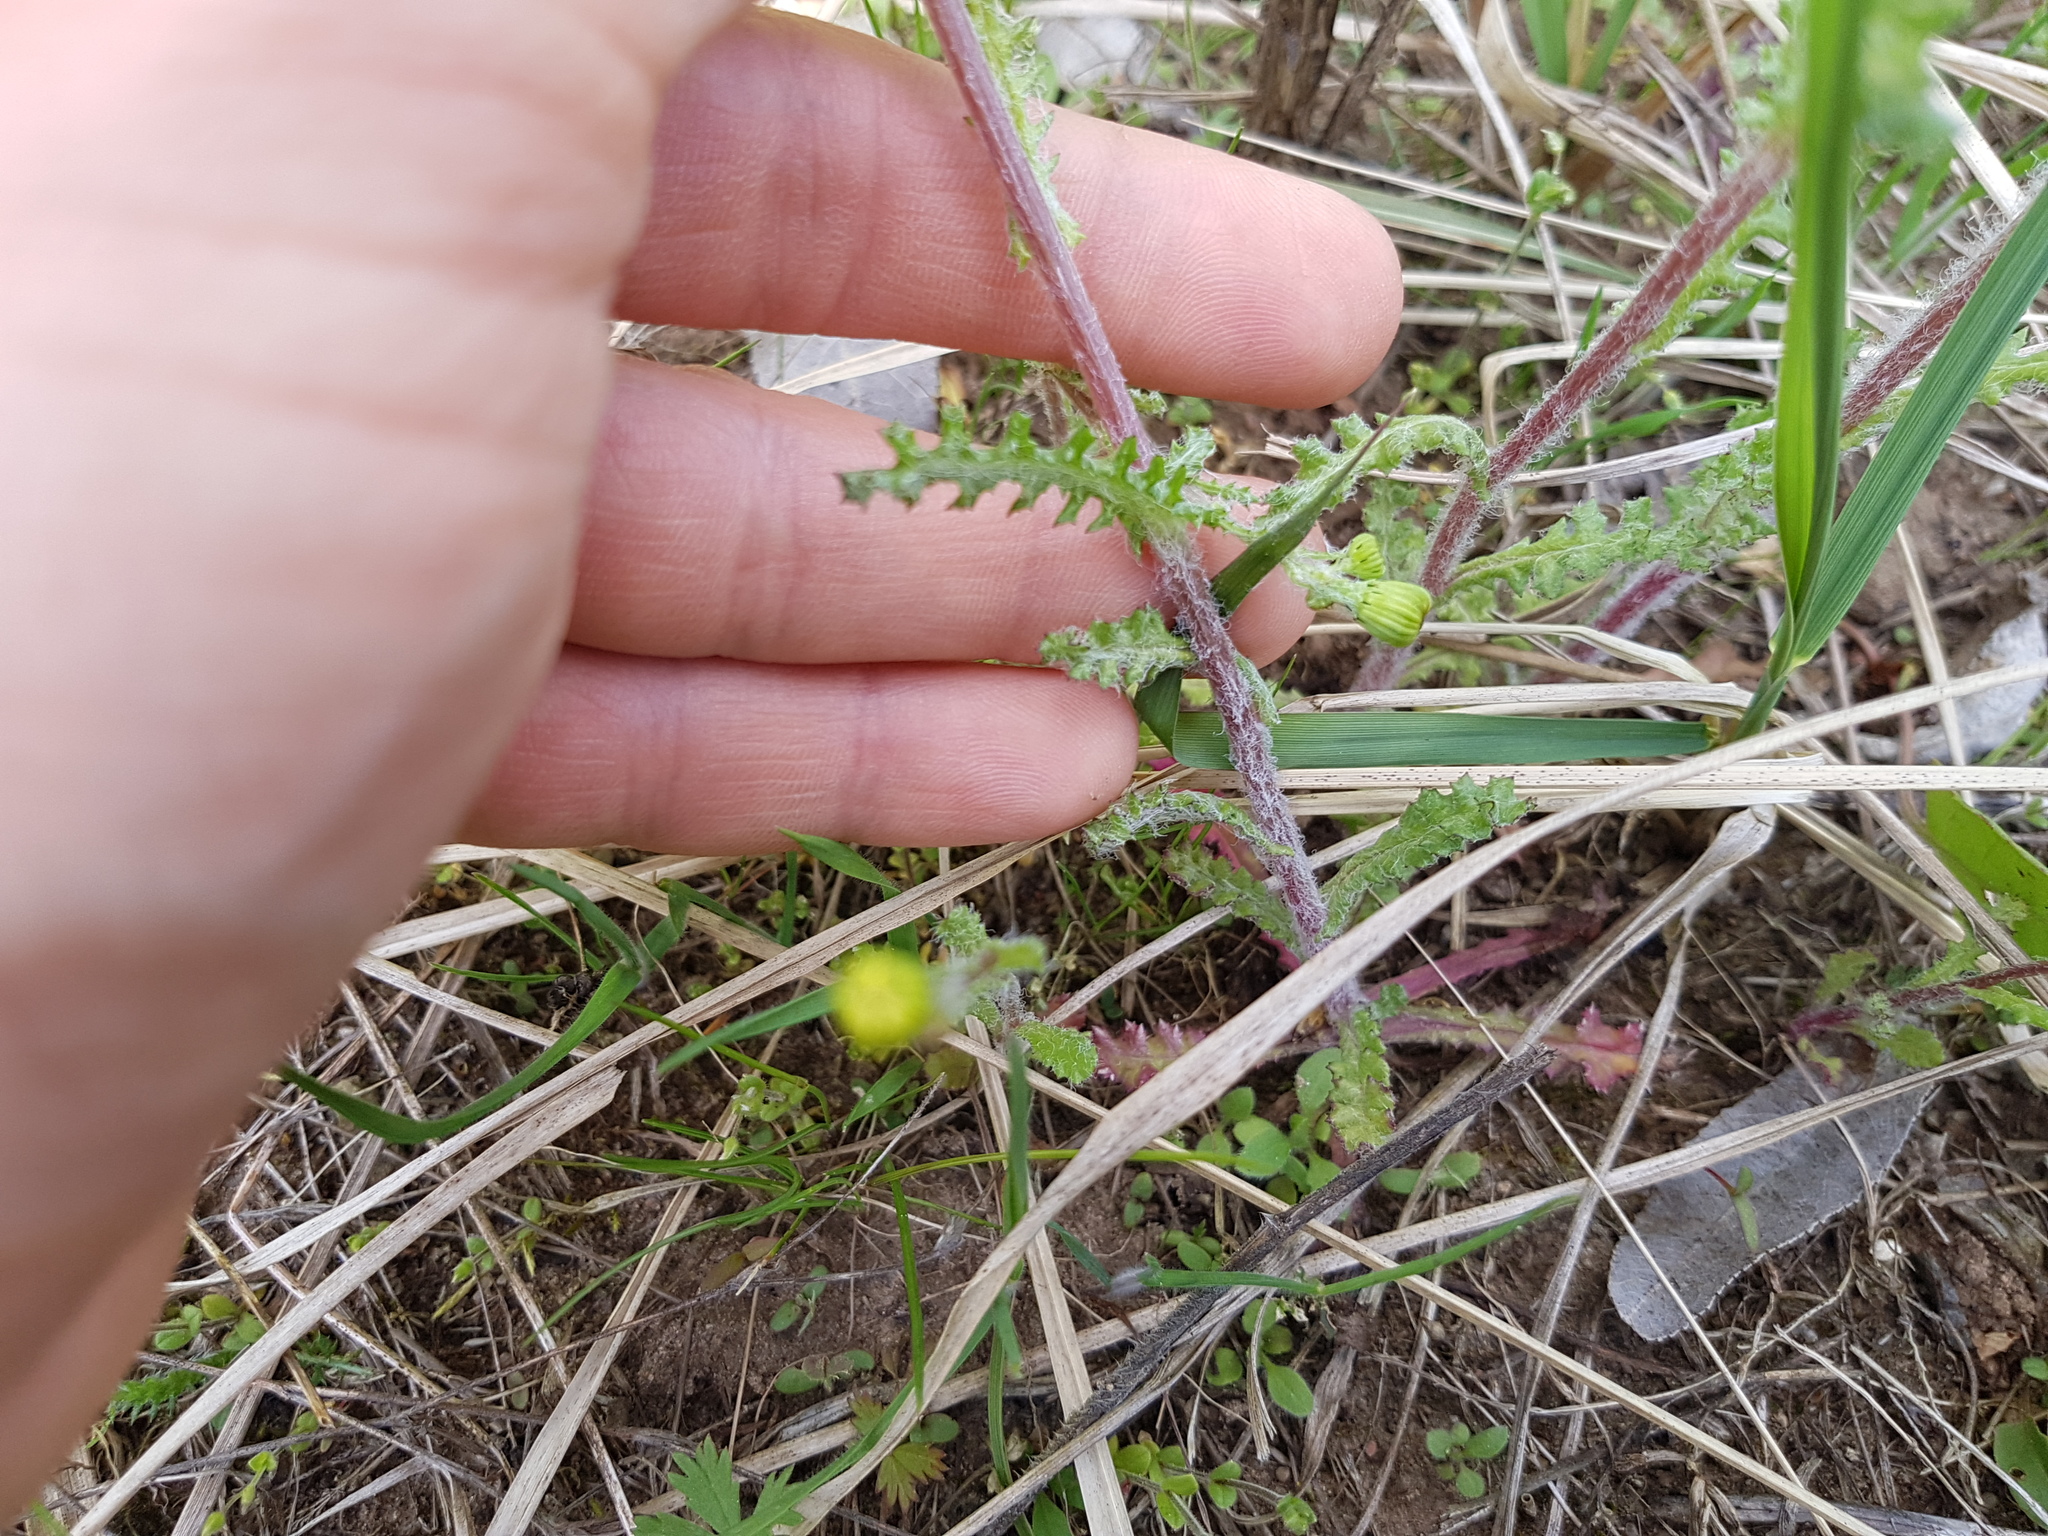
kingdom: Plantae
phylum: Tracheophyta
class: Magnoliopsida
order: Asterales
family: Asteraceae
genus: Senecio
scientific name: Senecio vernalis
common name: Eastern groundsel
